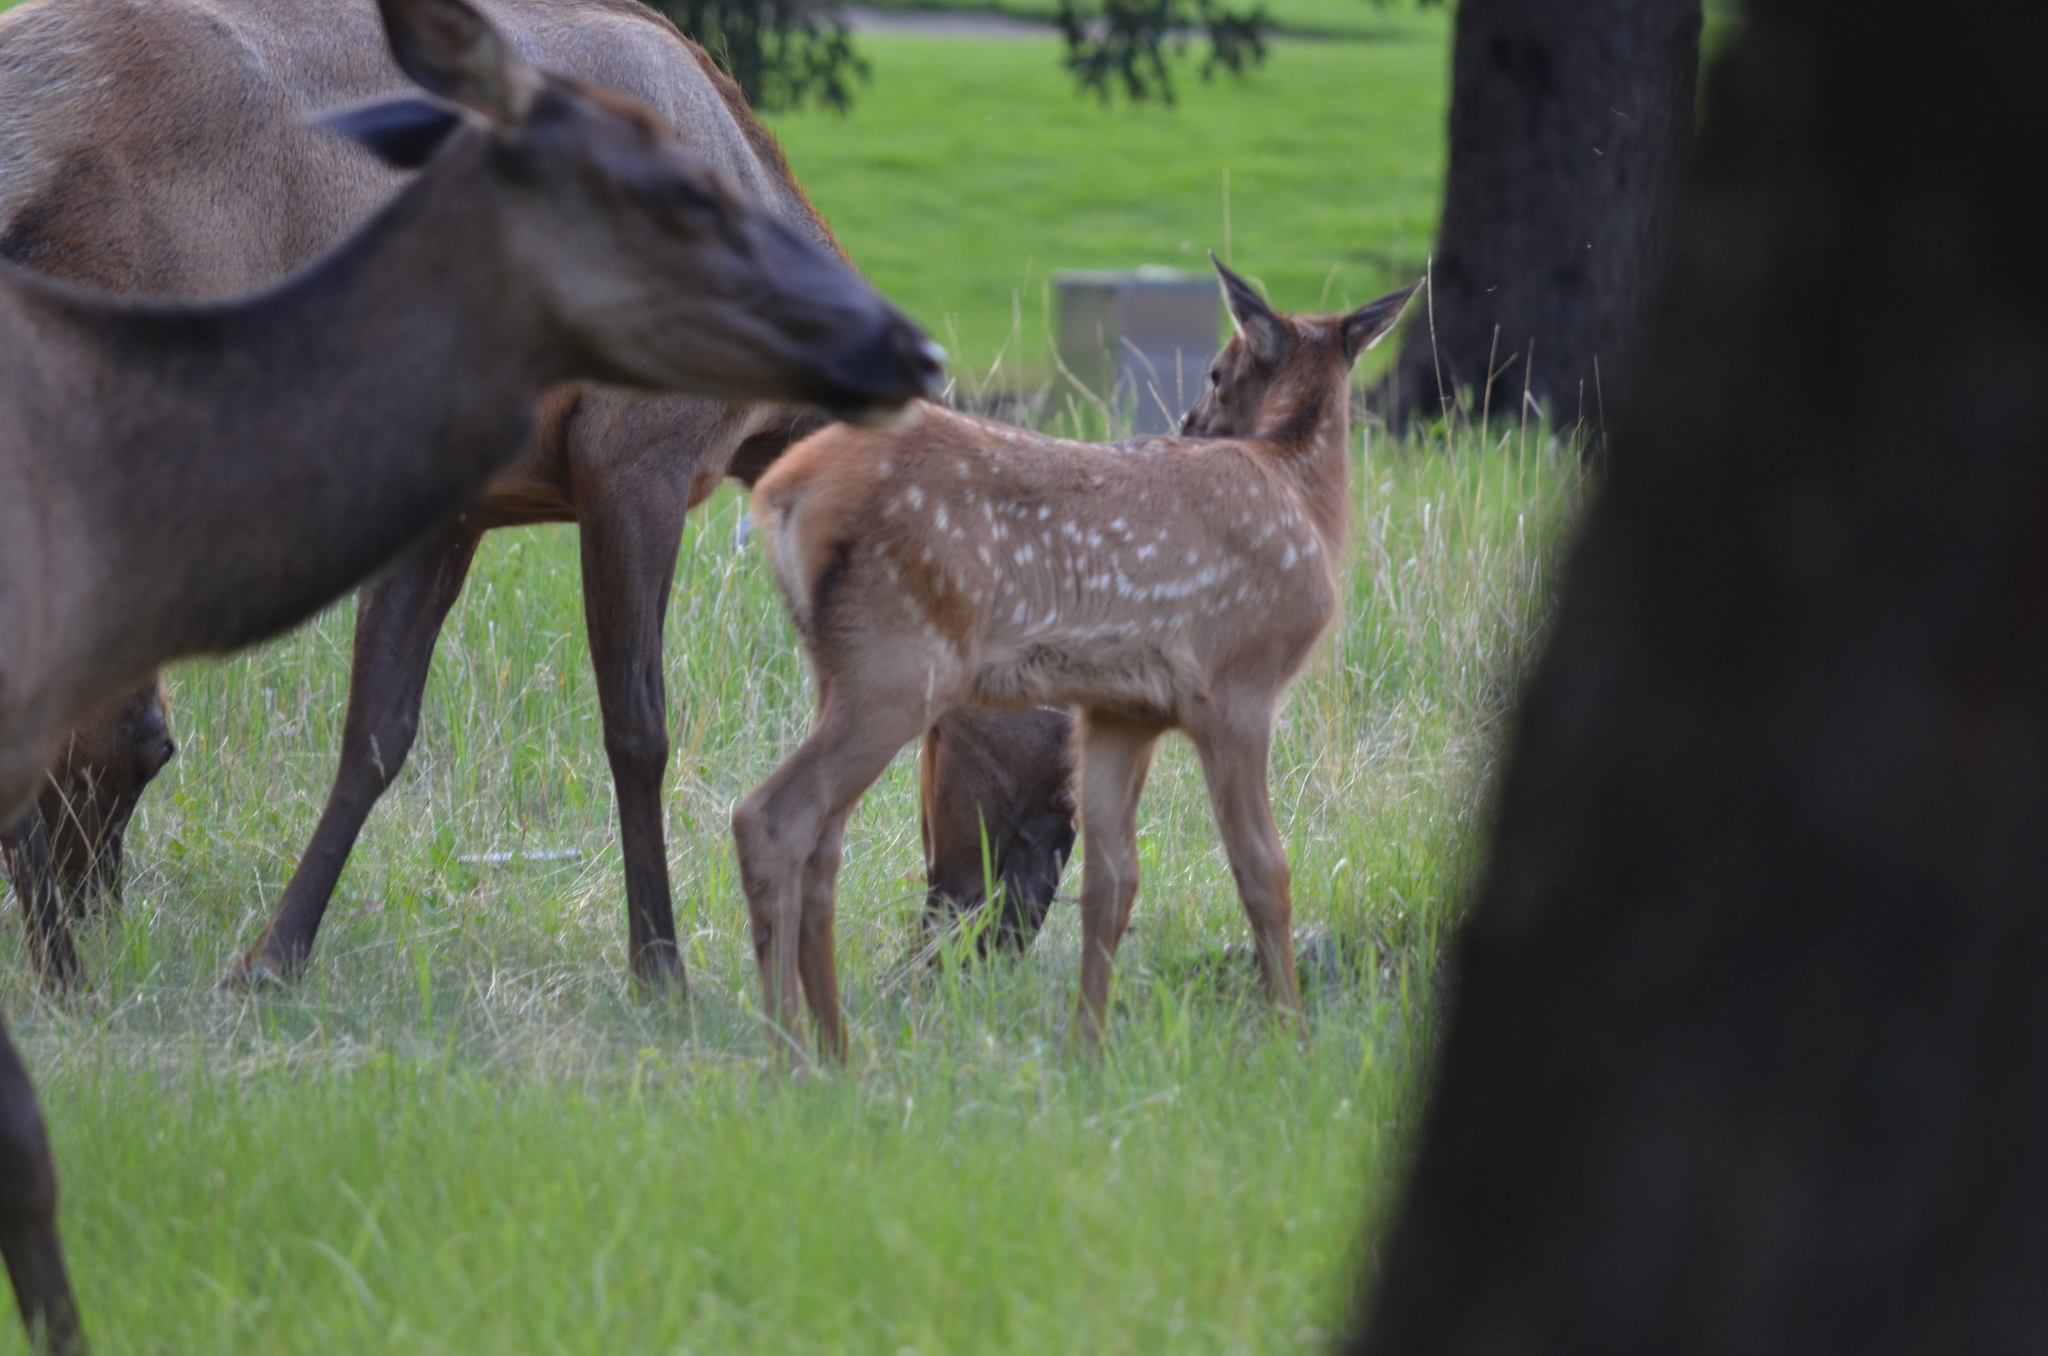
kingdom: Animalia
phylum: Chordata
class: Mammalia
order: Artiodactyla
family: Cervidae
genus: Cervus
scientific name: Cervus elaphus
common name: Red deer
